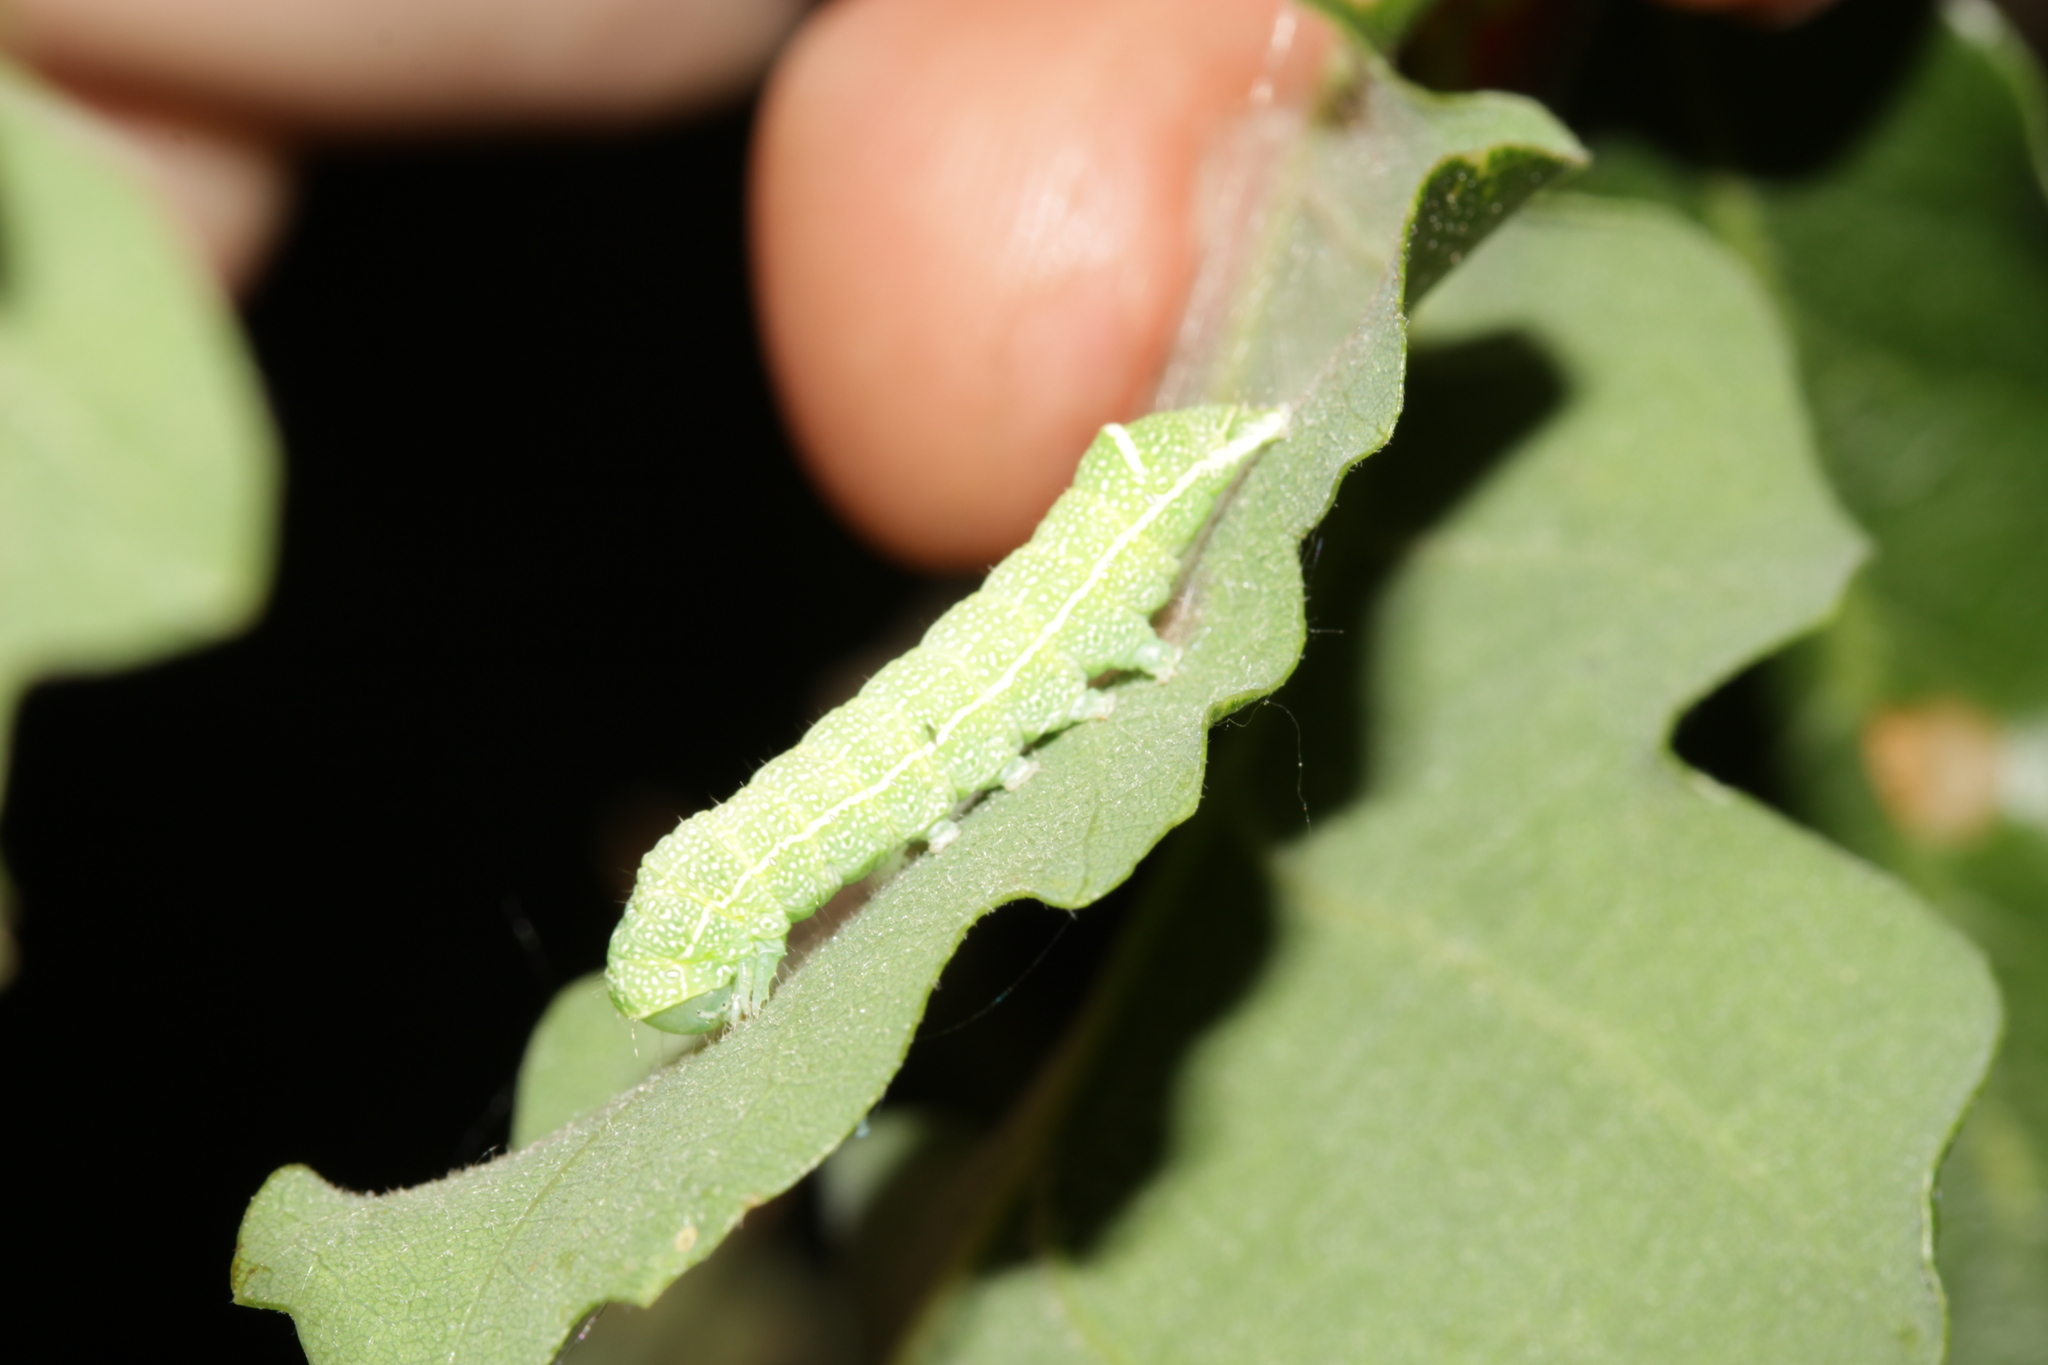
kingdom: Animalia
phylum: Arthropoda
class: Insecta
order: Lepidoptera
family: Noctuidae
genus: Orthosia
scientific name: Orthosia cerasi
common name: Common quaker
